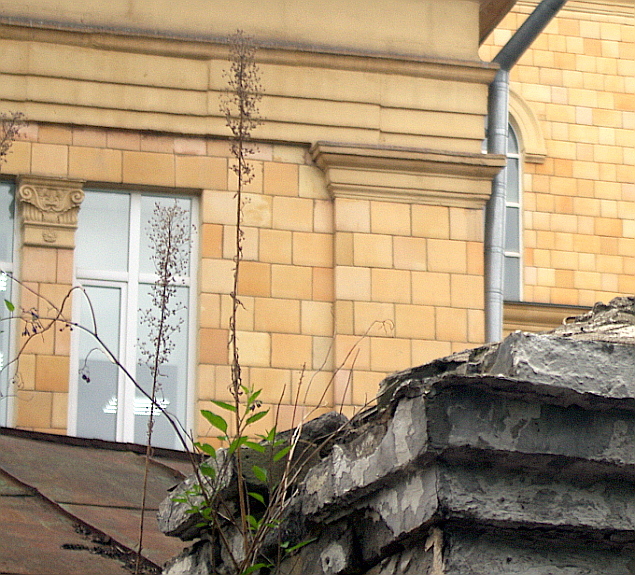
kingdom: Plantae
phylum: Tracheophyta
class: Magnoliopsida
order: Asterales
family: Asteraceae
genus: Erigeron
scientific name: Erigeron canadensis
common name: Canadian fleabane
